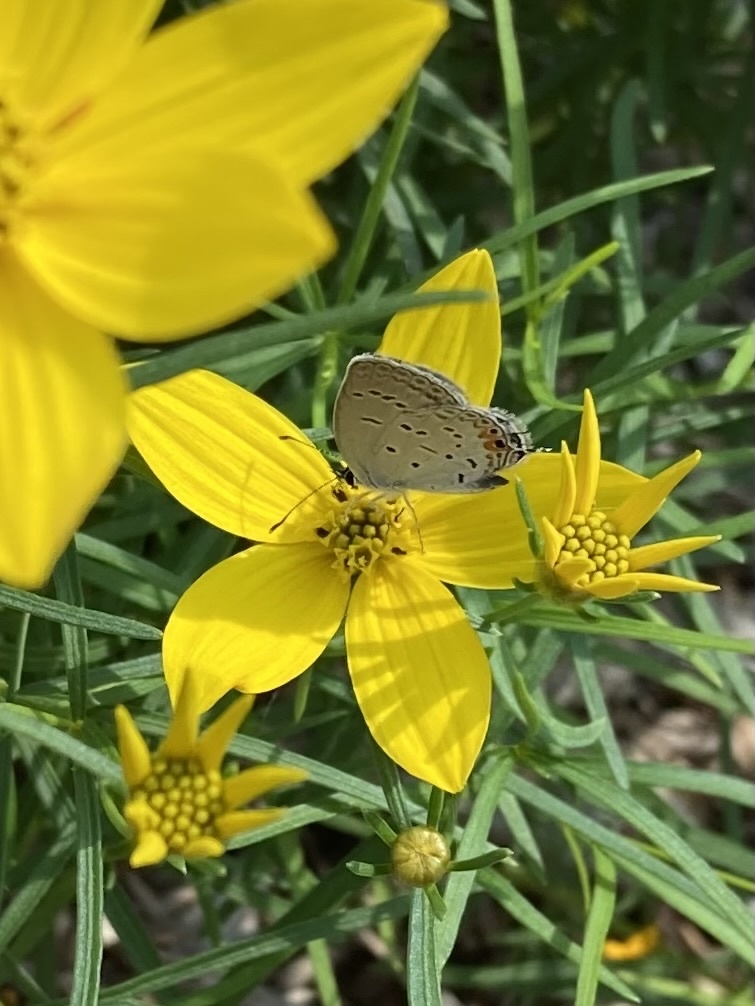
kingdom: Animalia
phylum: Arthropoda
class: Insecta
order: Lepidoptera
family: Lycaenidae
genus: Elkalyce
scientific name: Elkalyce comyntas
